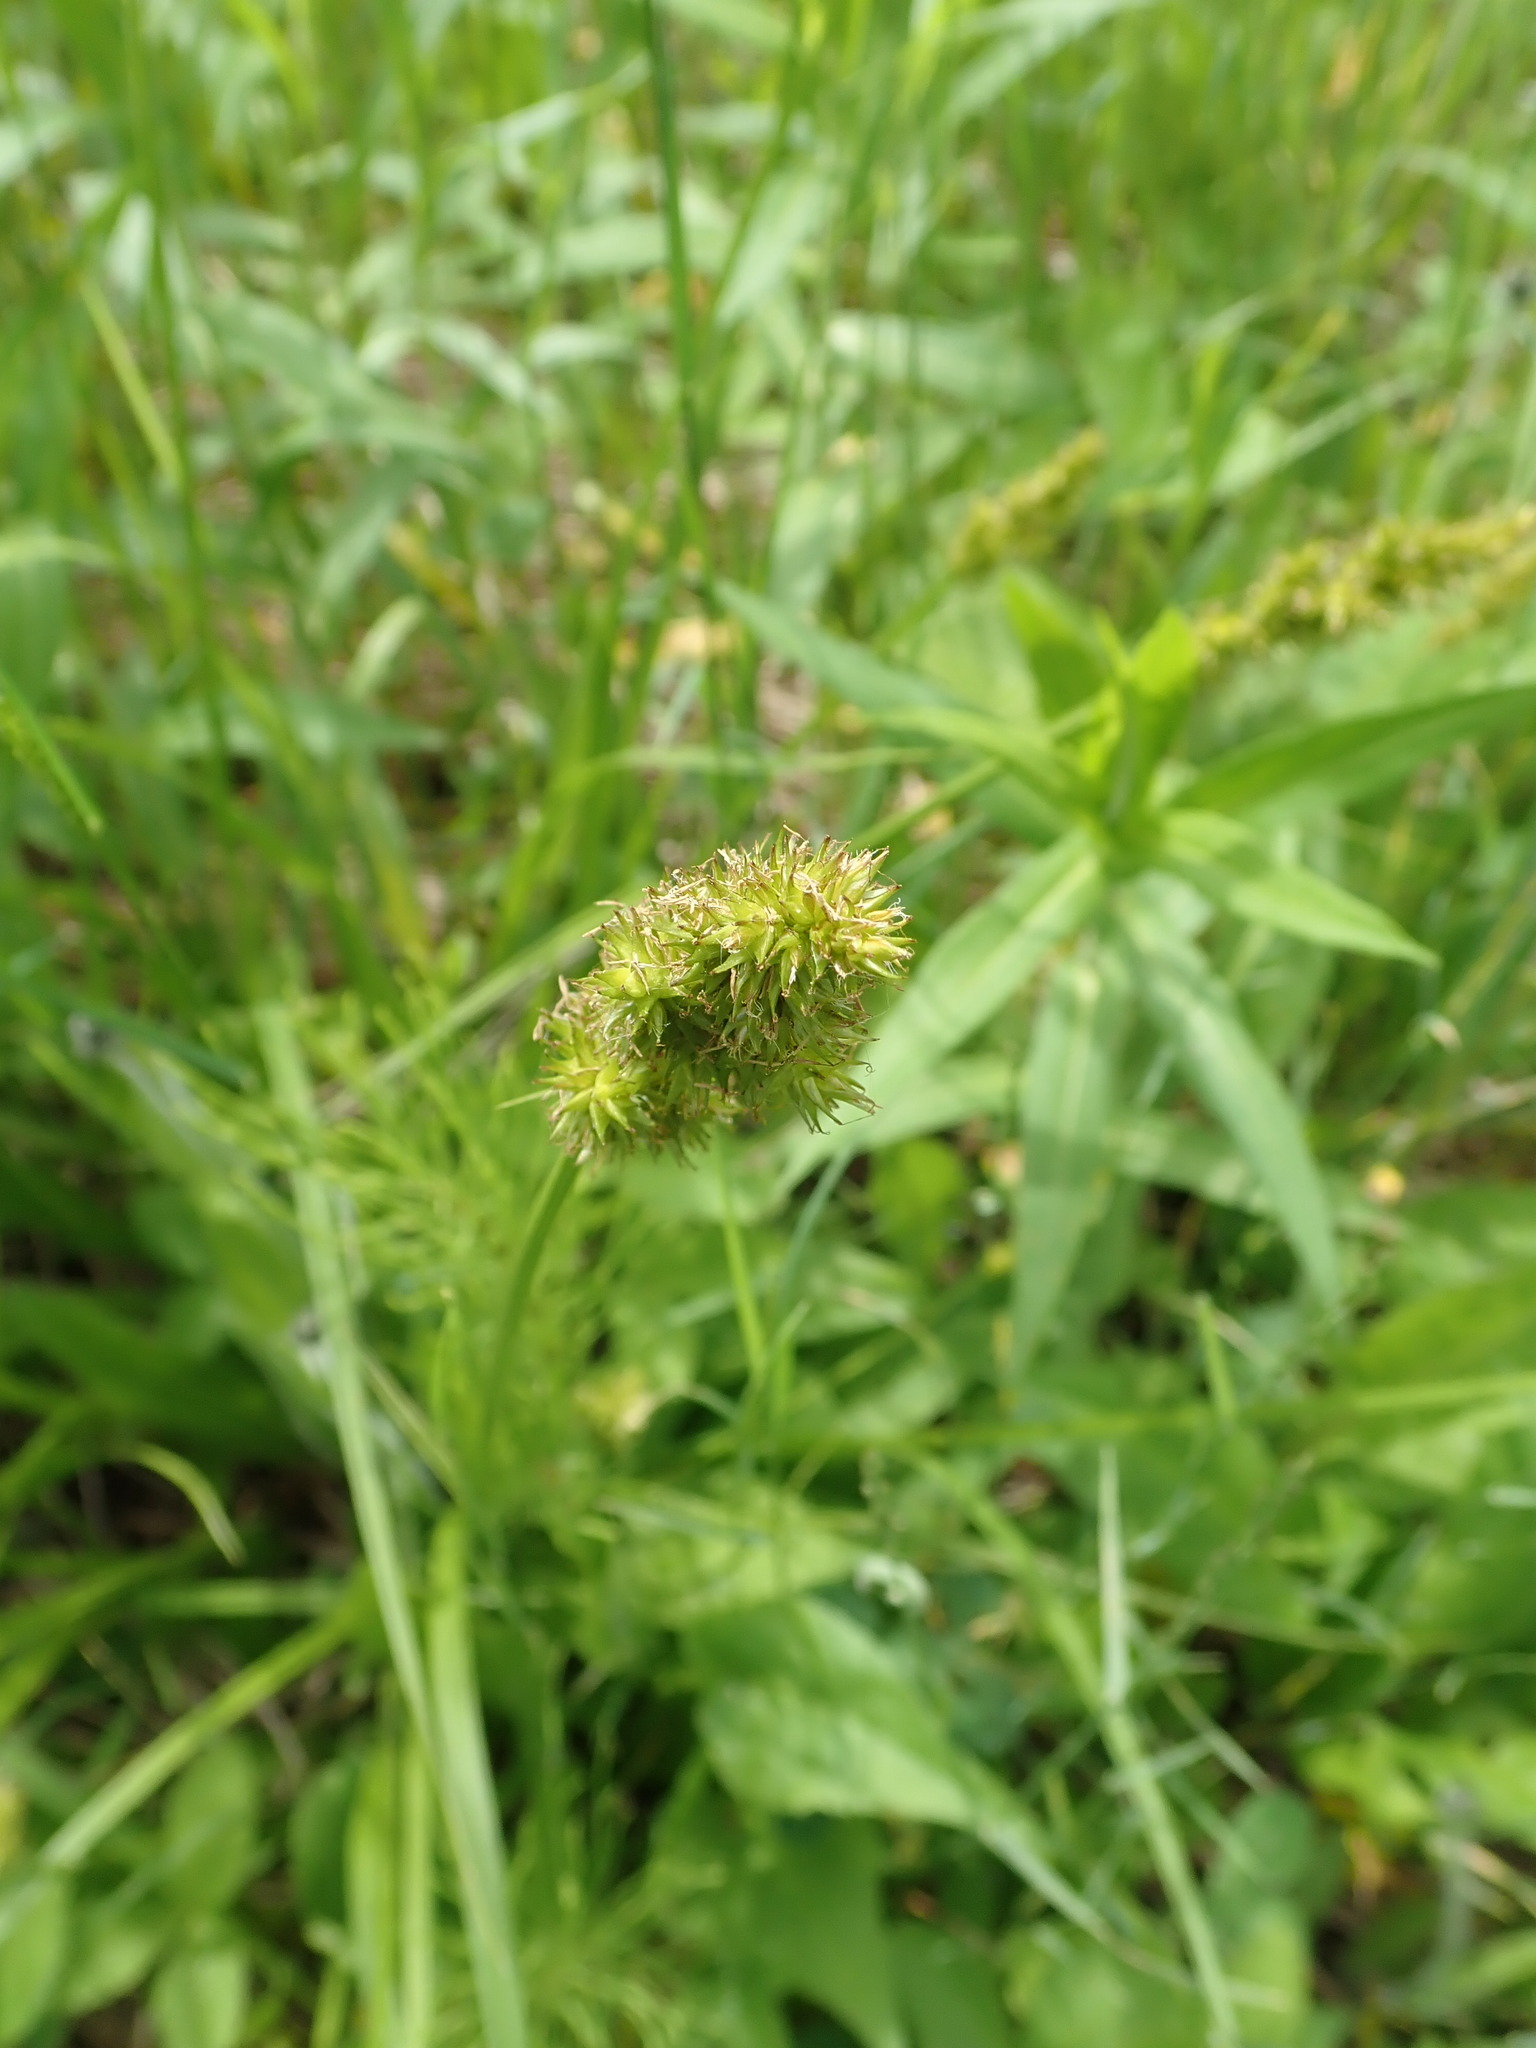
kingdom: Plantae
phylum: Tracheophyta
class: Liliopsida
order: Poales
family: Cyperaceae
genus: Carex
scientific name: Carex stipata
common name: Awl-fruited sedge
